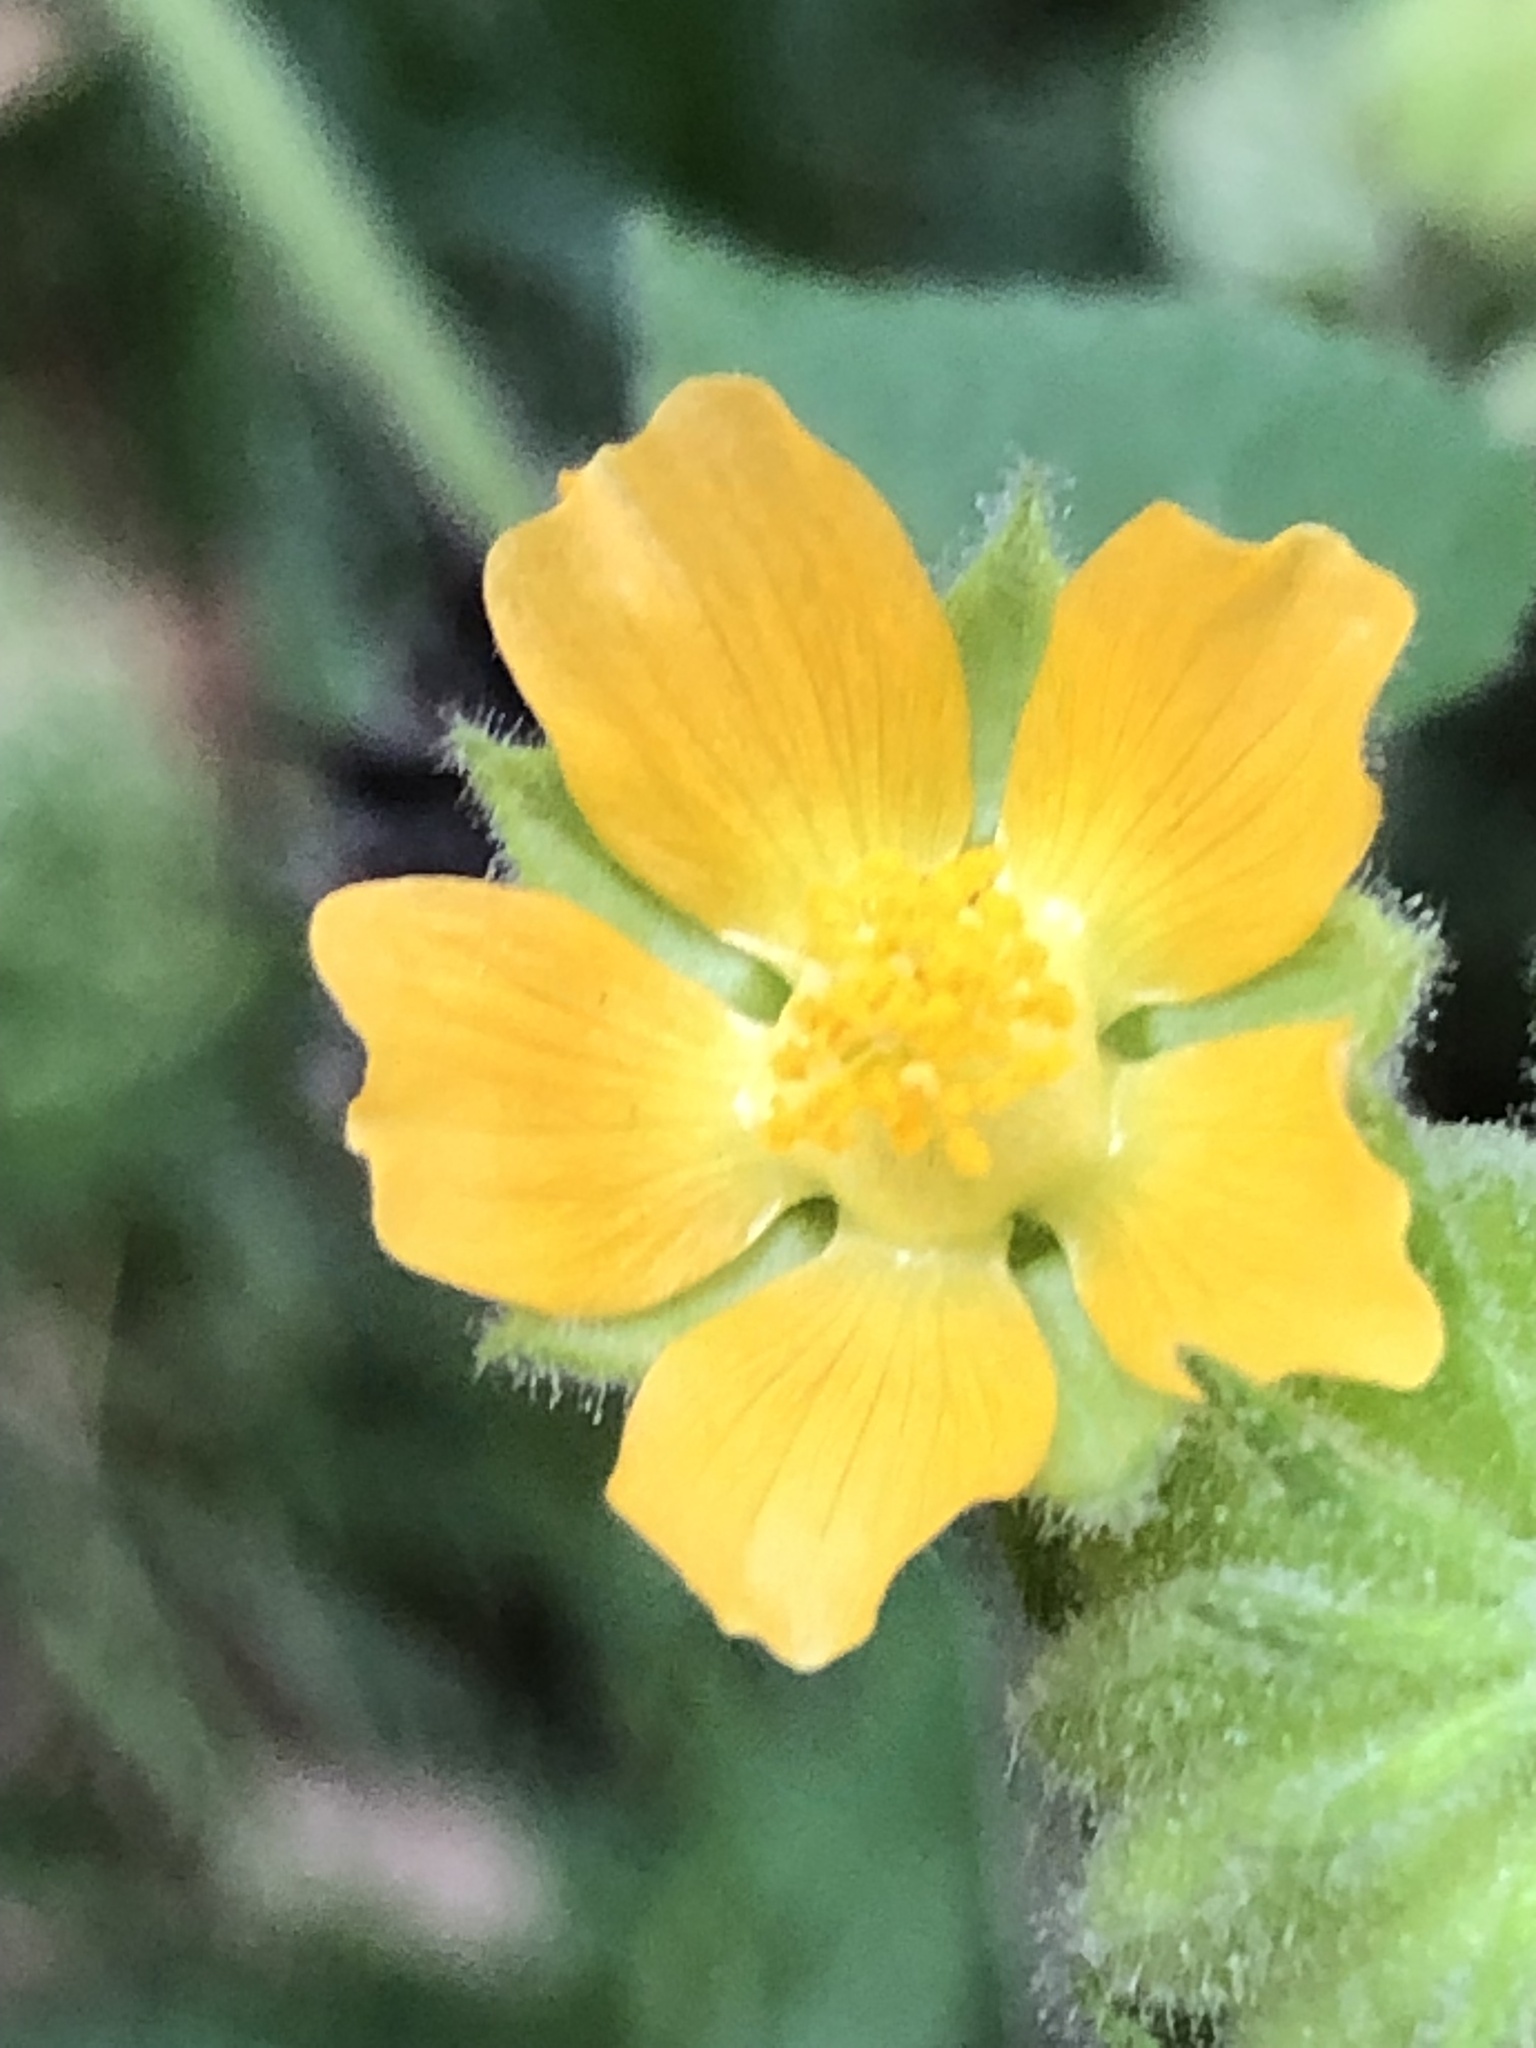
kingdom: Plantae
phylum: Tracheophyta
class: Magnoliopsida
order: Malvales
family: Malvaceae
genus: Abutilon
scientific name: Abutilon theophrasti
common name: Velvetleaf
